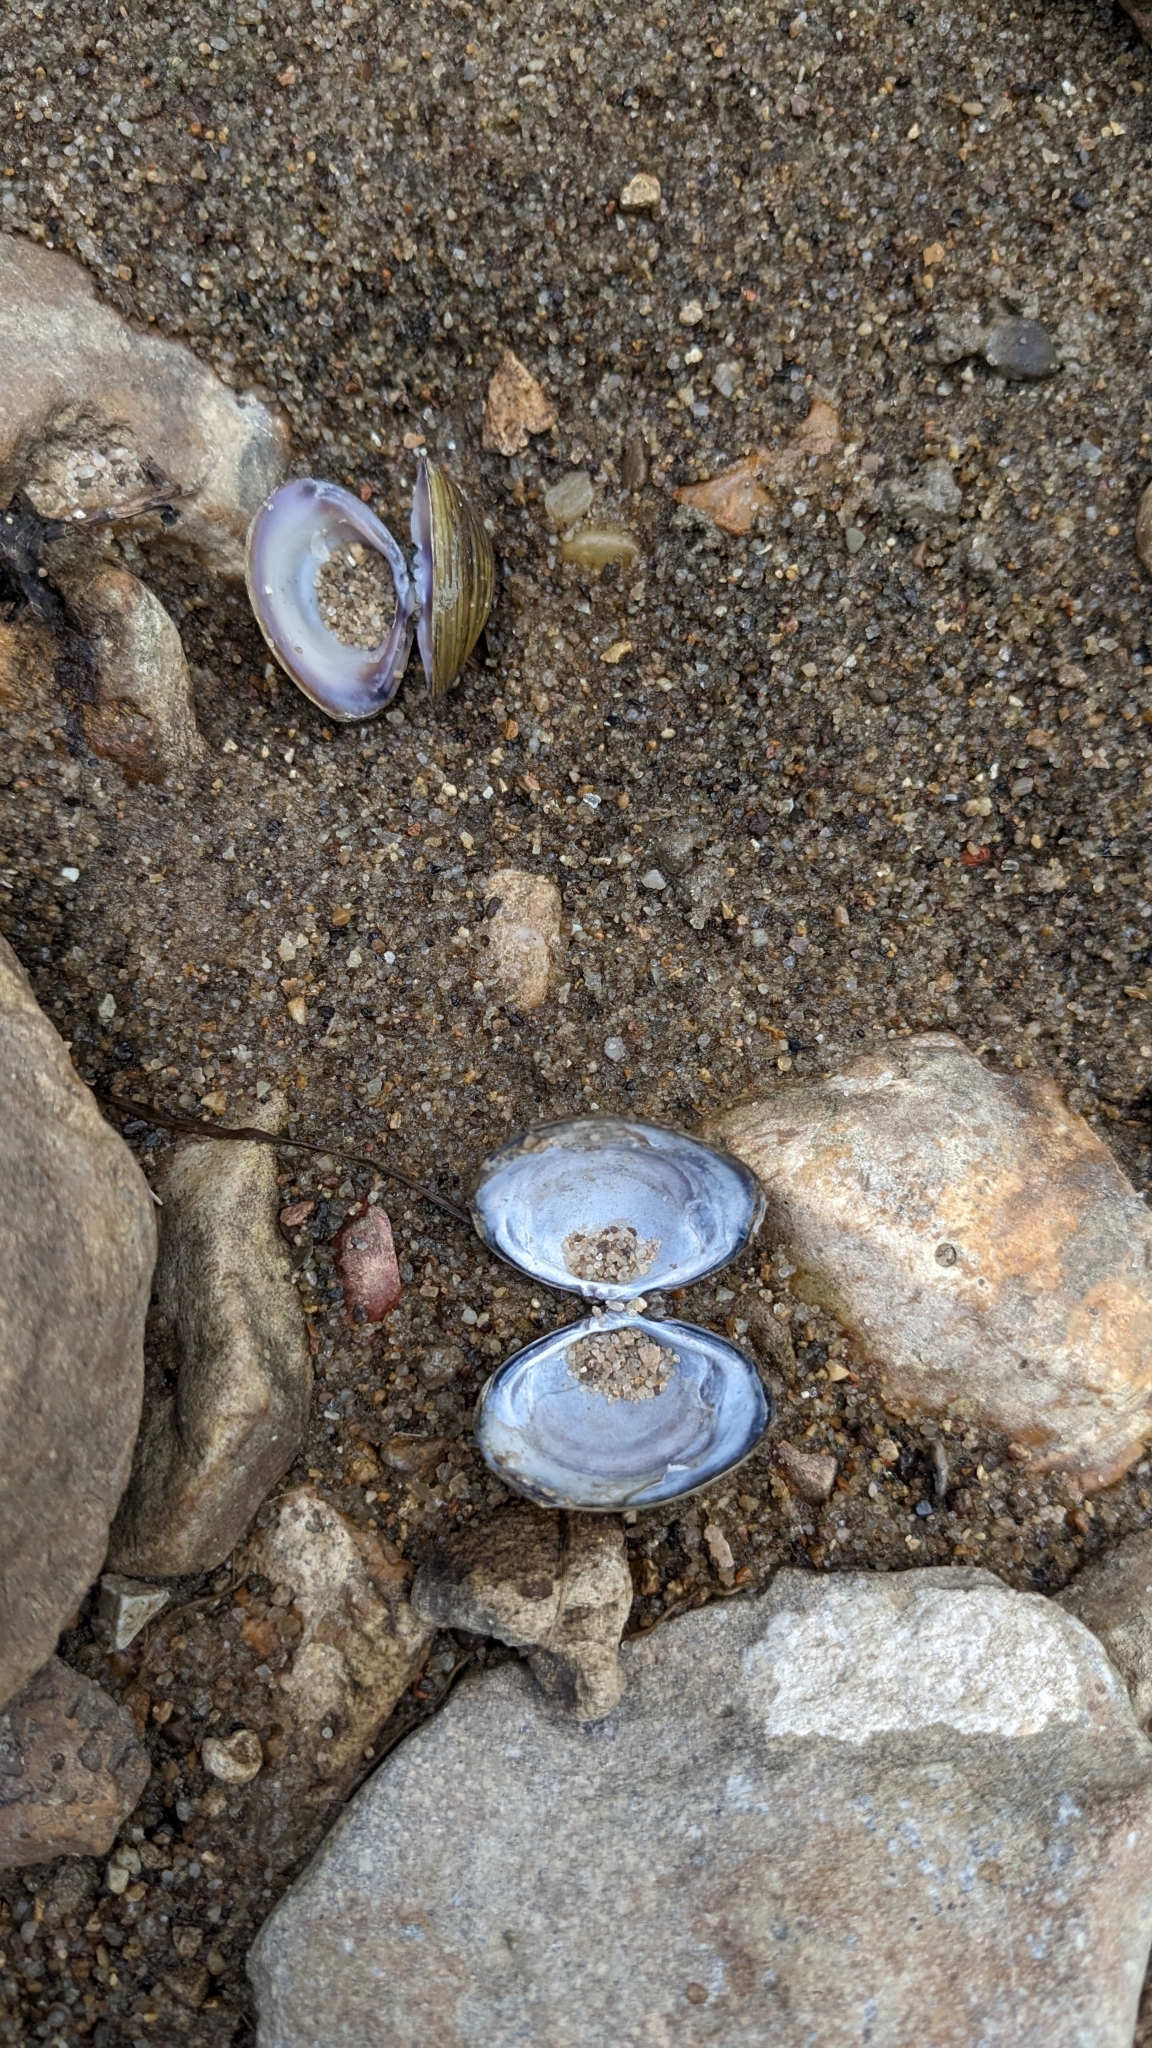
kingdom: Animalia
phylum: Mollusca
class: Bivalvia
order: Venerida
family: Cyrenidae
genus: Corbicula
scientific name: Corbicula fluminea
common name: Asian clam
